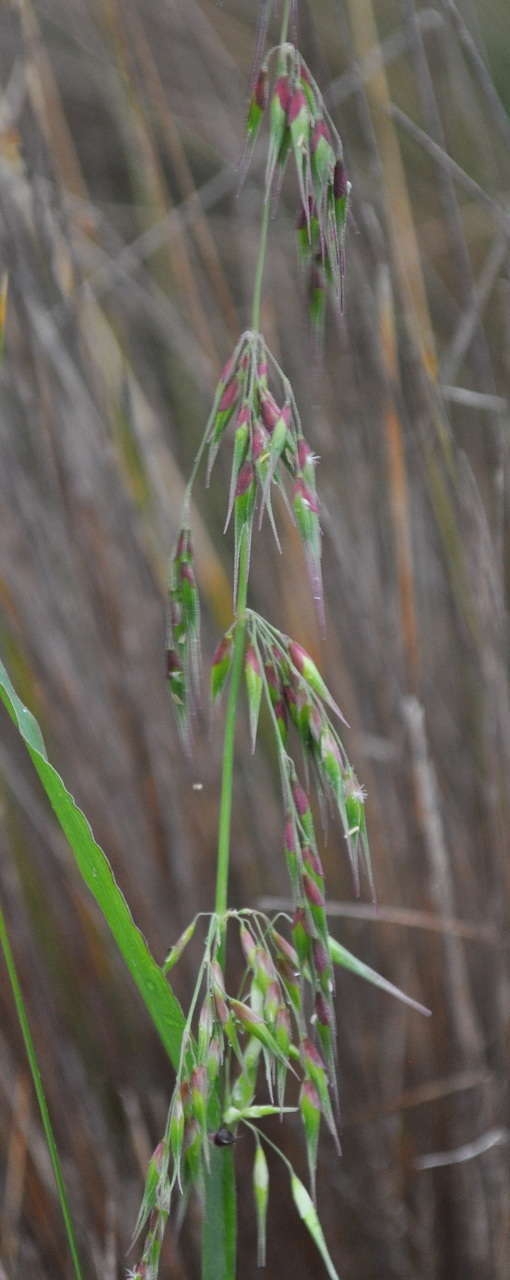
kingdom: Plantae
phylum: Tracheophyta
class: Liliopsida
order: Poales
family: Poaceae
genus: Ehrharta
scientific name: Ehrharta longiflora
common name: Longflowered veldtgrass
